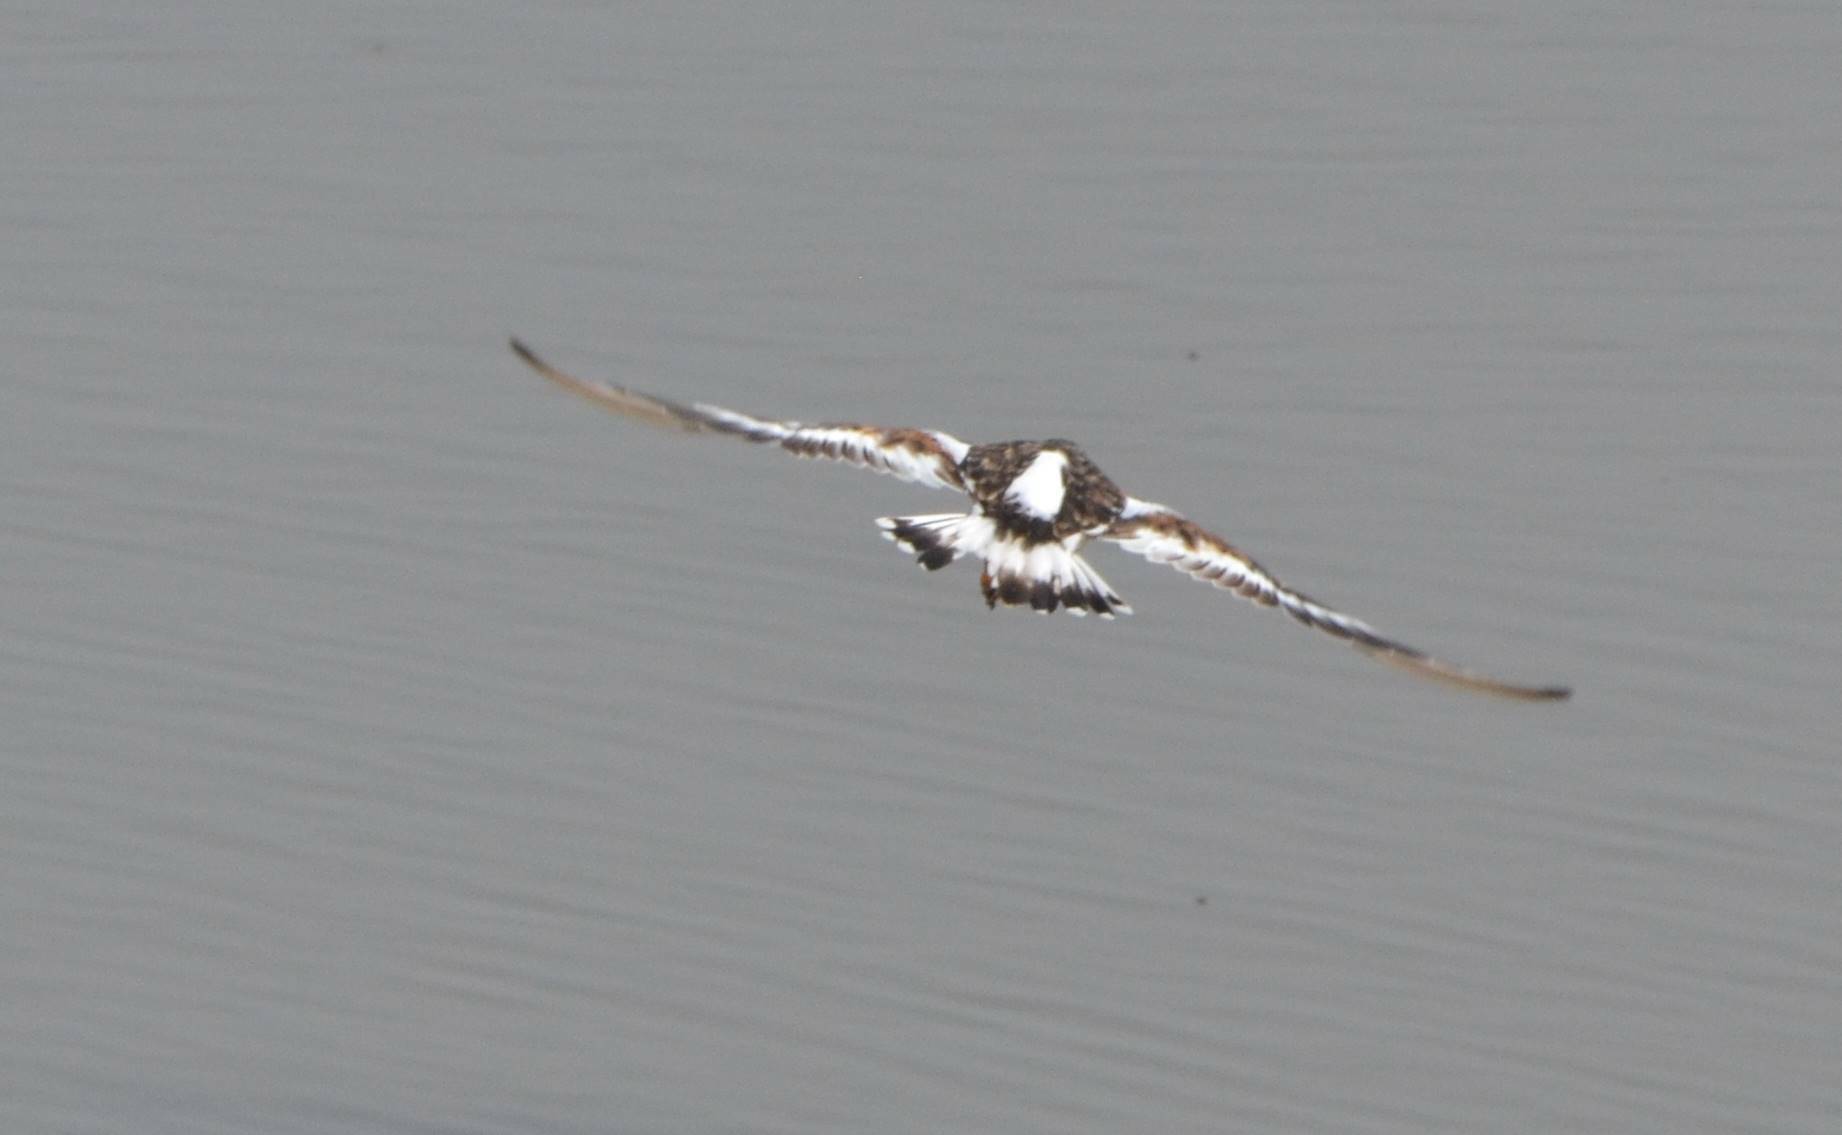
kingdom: Animalia
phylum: Chordata
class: Aves
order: Charadriiformes
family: Scolopacidae
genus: Arenaria
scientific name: Arenaria interpres
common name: Ruddy turnstone
